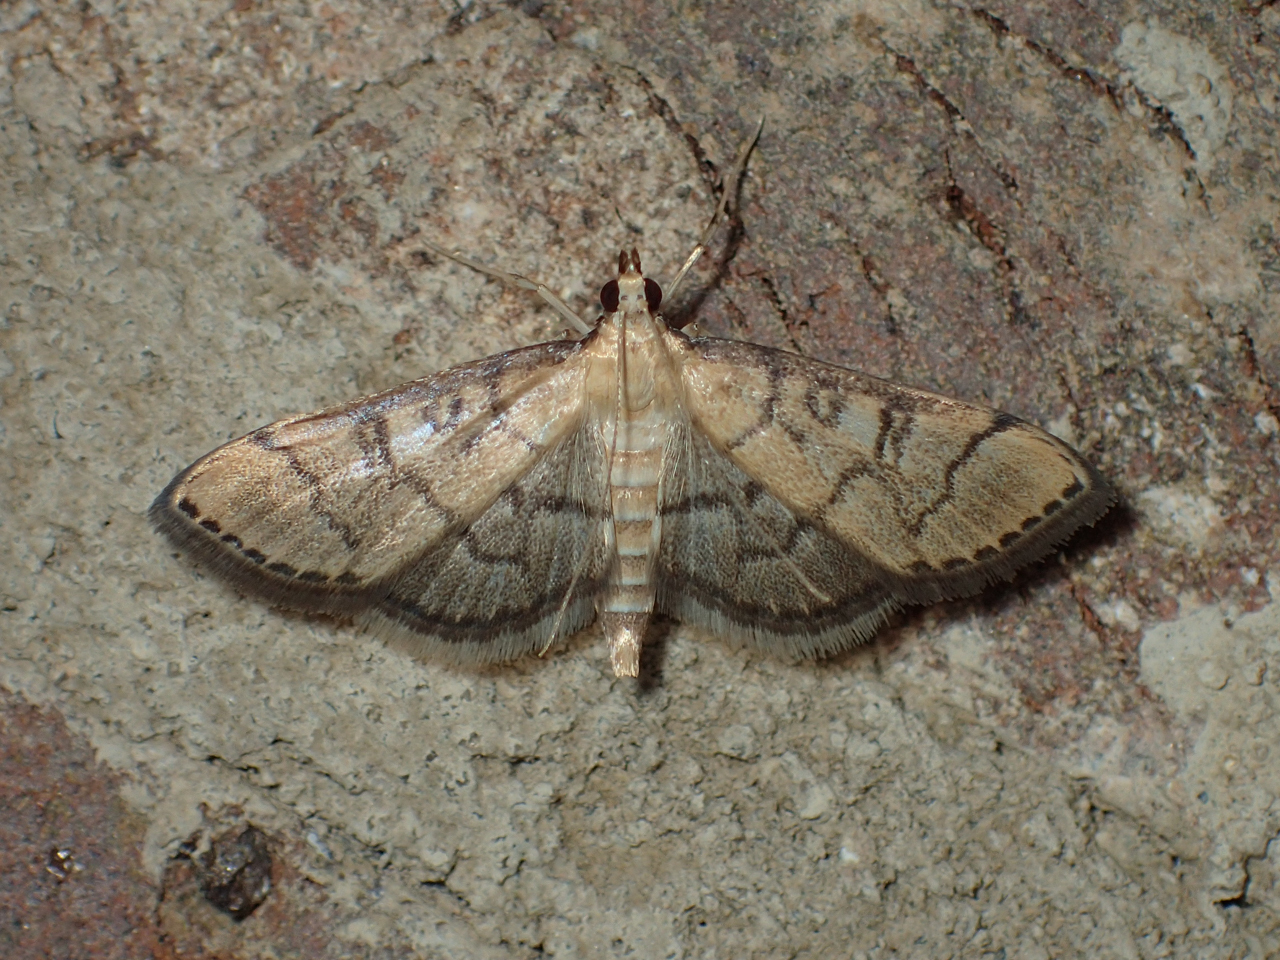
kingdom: Animalia
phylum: Arthropoda
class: Insecta
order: Lepidoptera
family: Crambidae
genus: Lamprosema
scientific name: Lamprosema Blepharomastix ranalis
